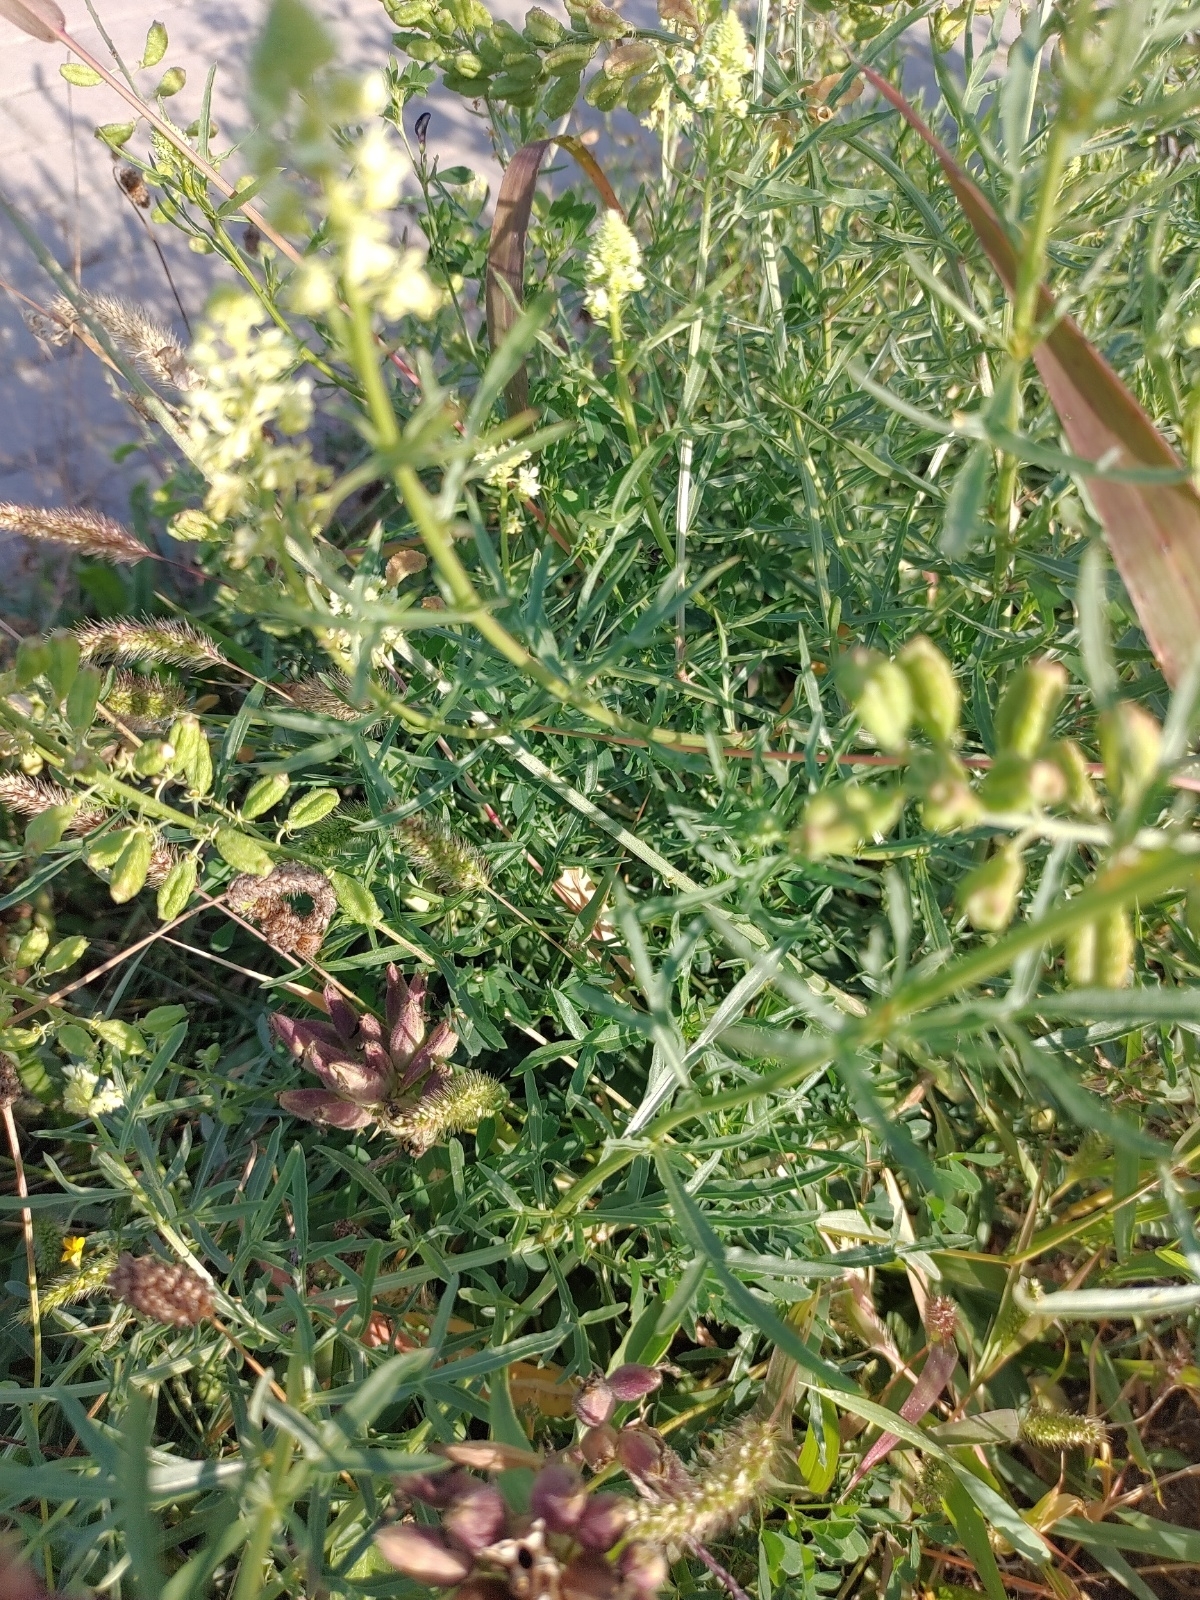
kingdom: Plantae
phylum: Tracheophyta
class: Magnoliopsida
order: Brassicales
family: Resedaceae
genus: Reseda
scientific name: Reseda lutea
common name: Wild mignonette
